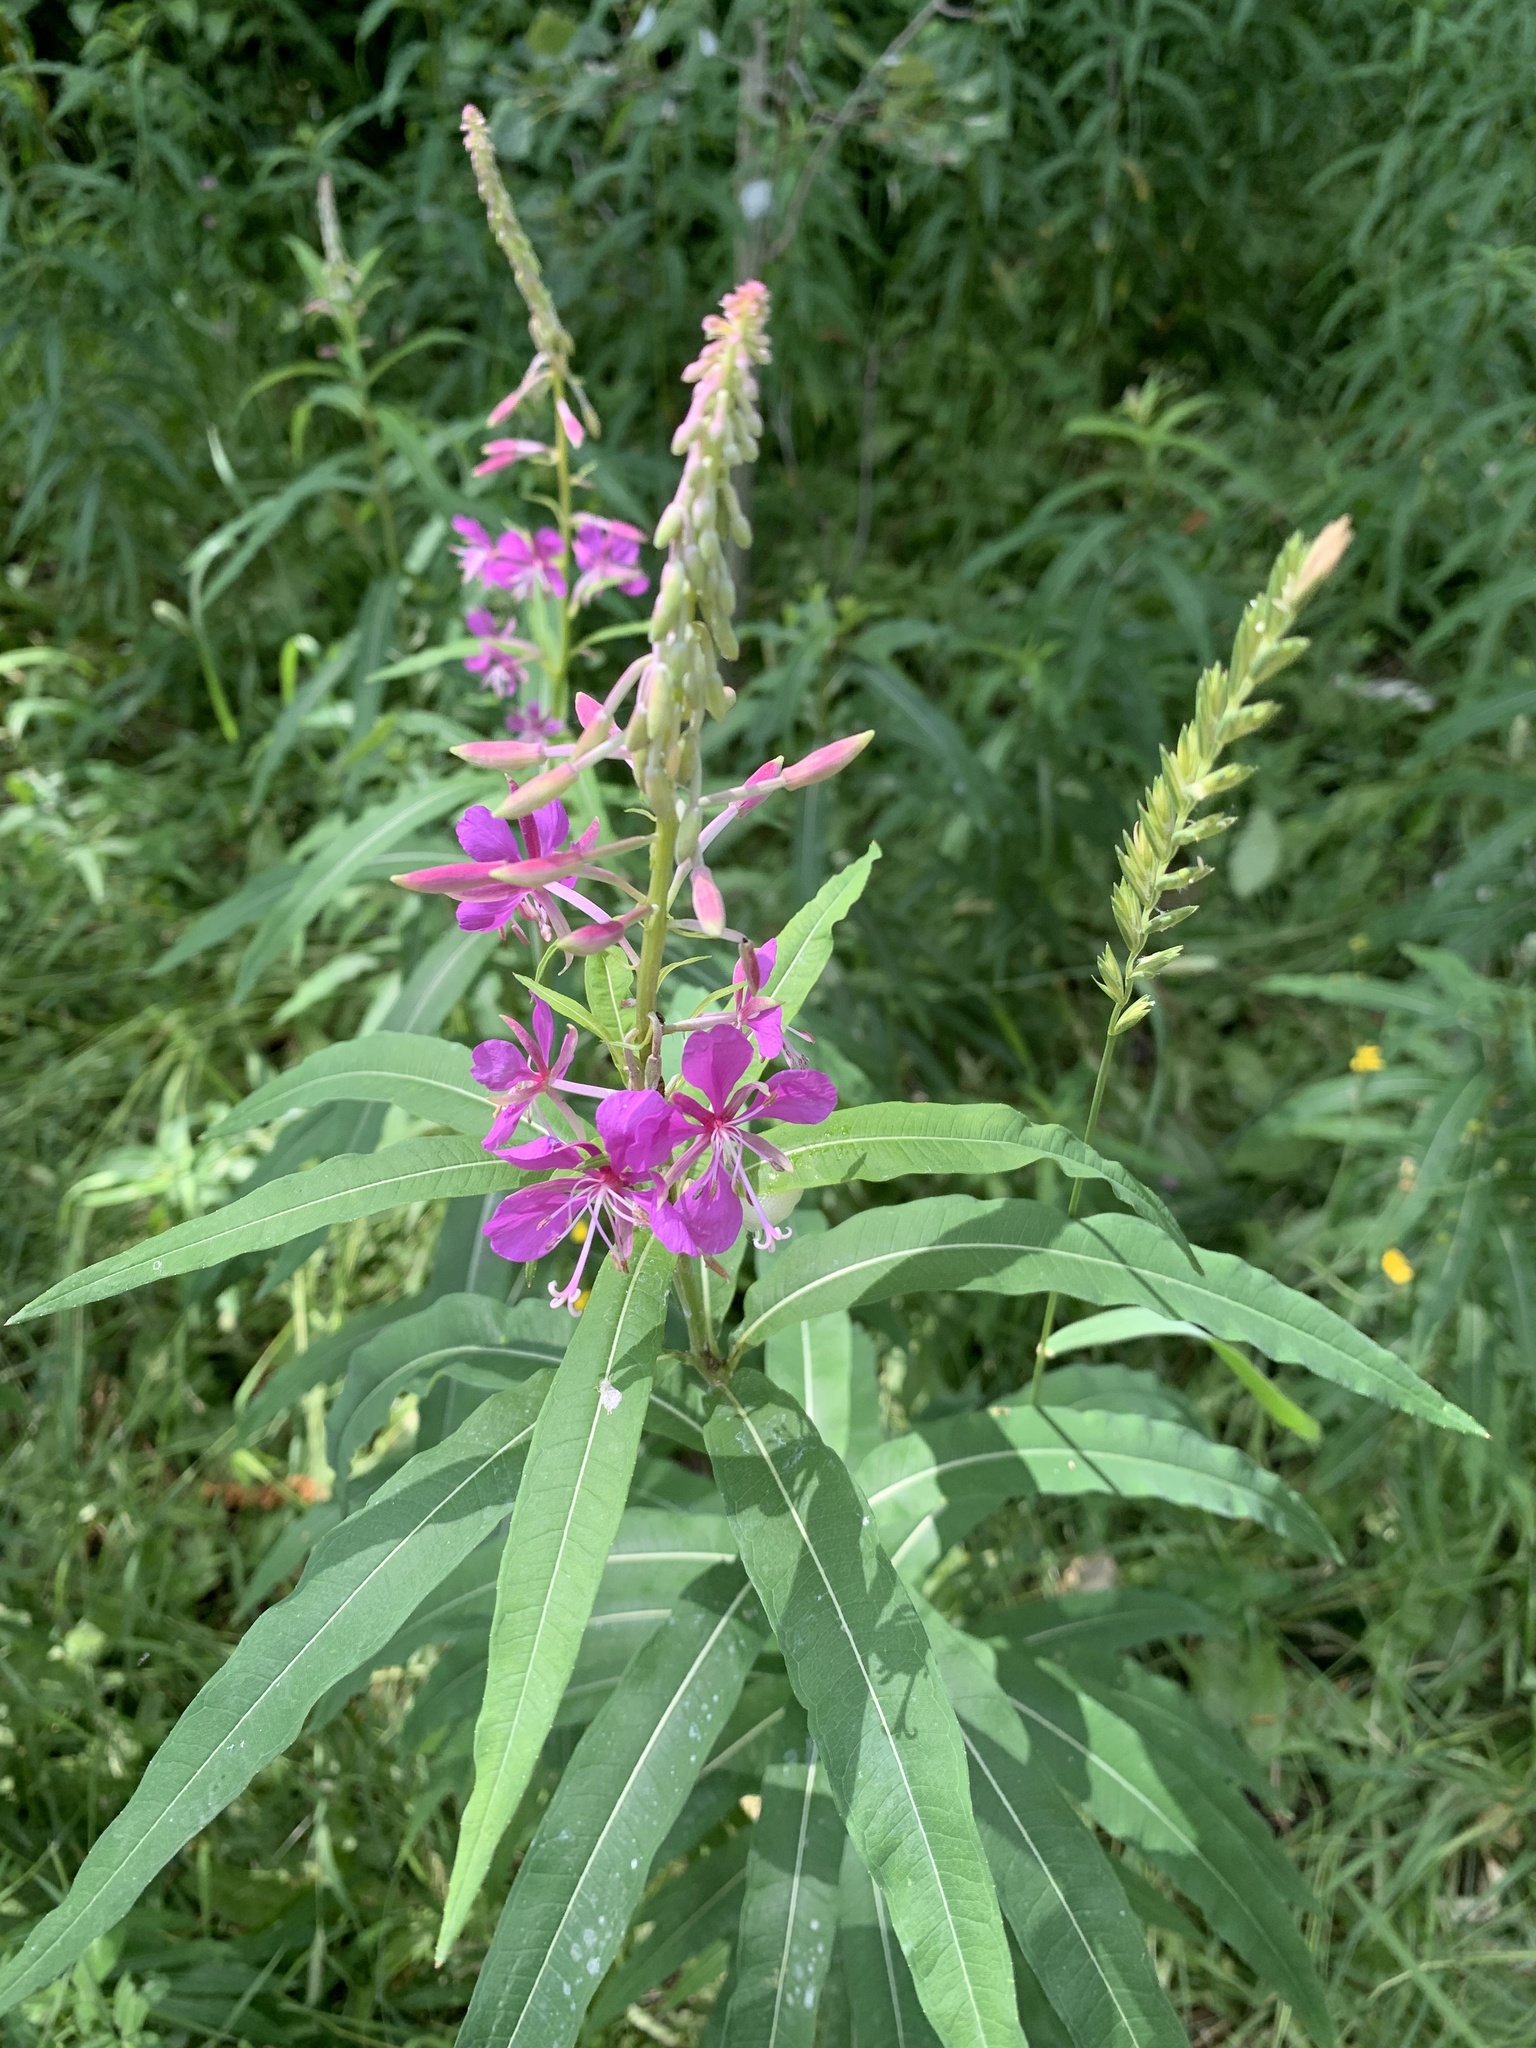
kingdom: Plantae
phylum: Tracheophyta
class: Magnoliopsida
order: Myrtales
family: Onagraceae
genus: Chamaenerion
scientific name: Chamaenerion angustifolium
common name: Fireweed
